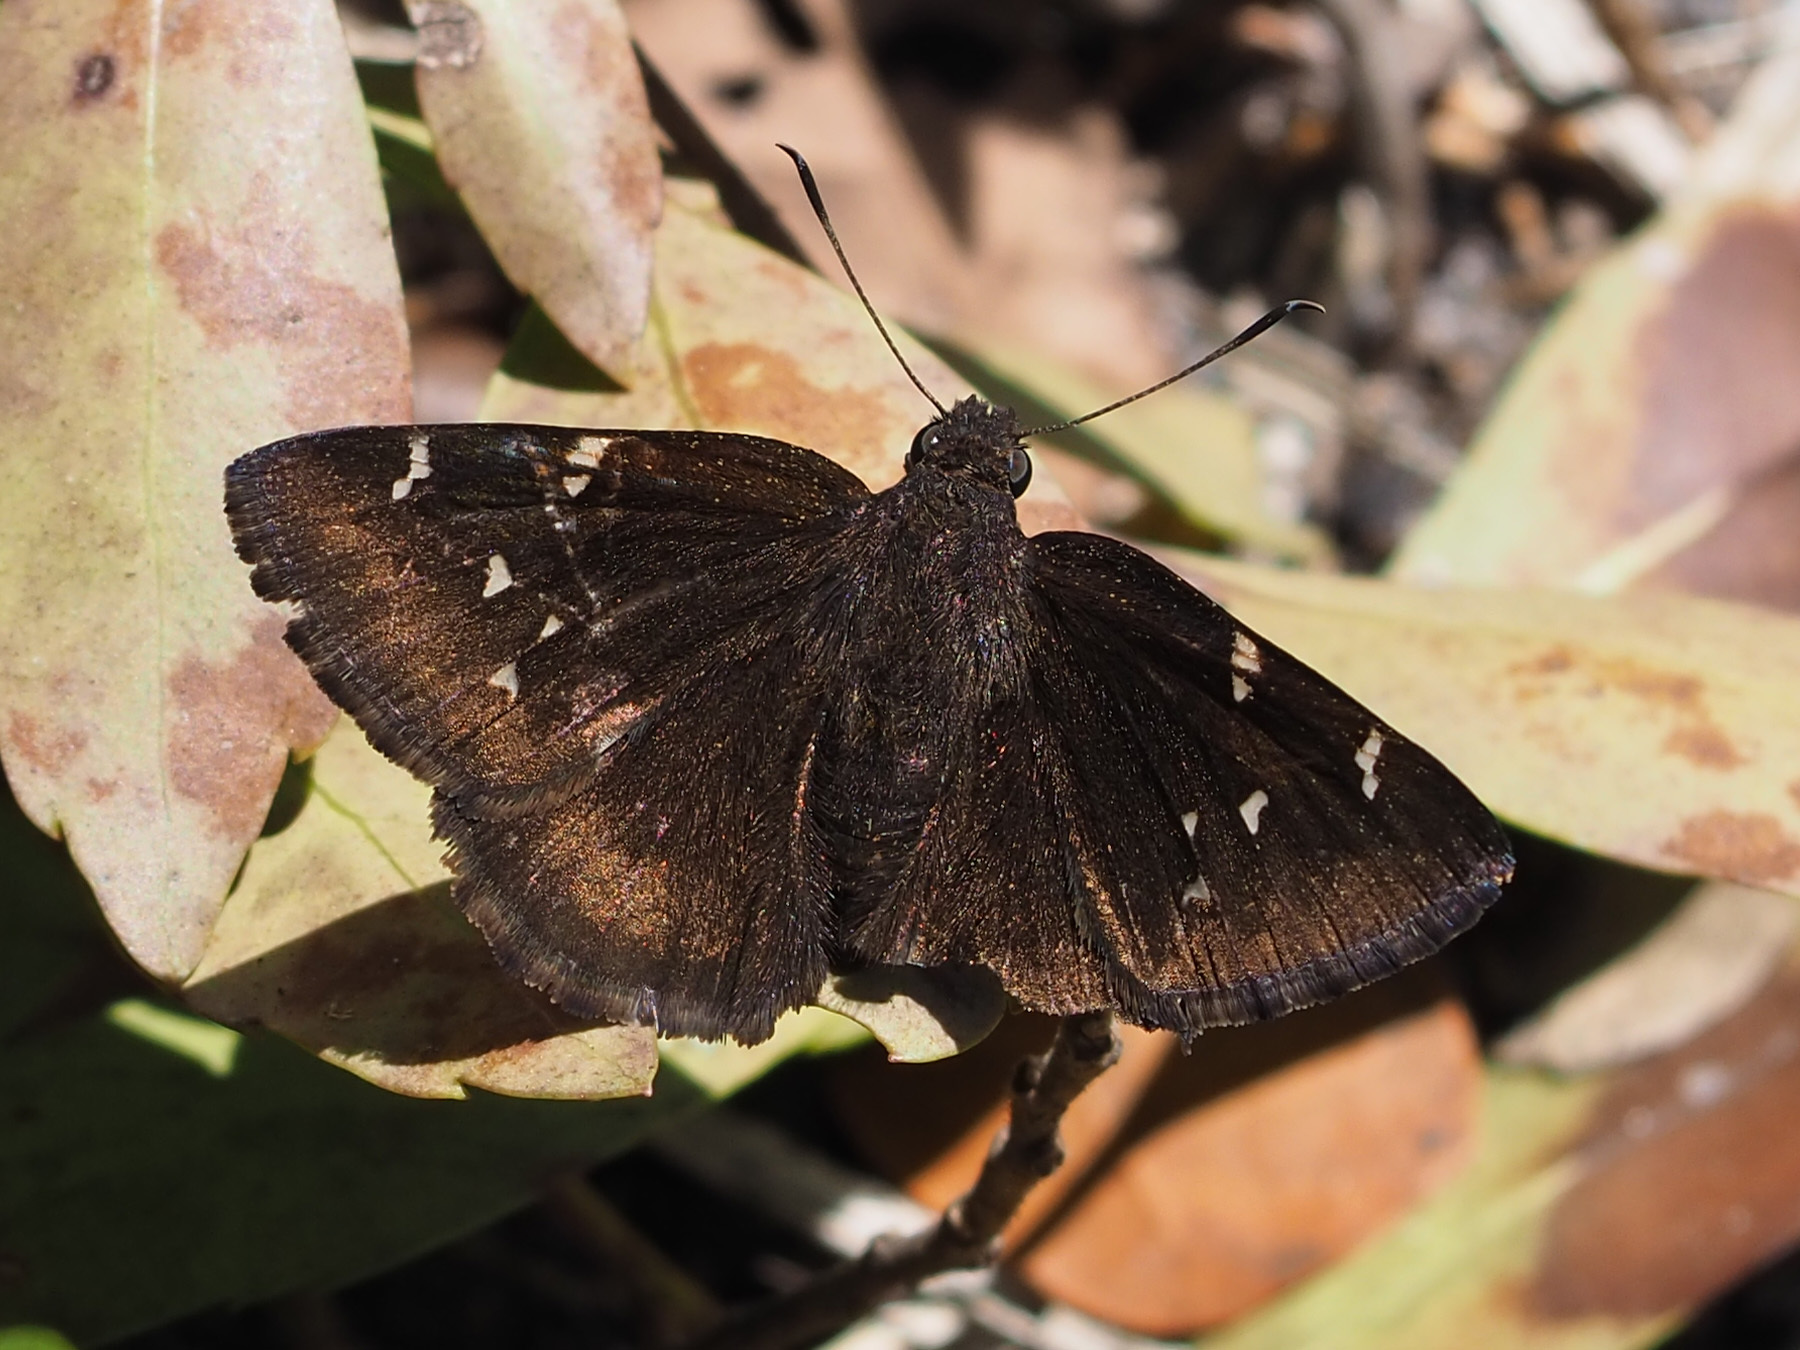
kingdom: Animalia
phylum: Arthropoda
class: Insecta
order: Lepidoptera
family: Hesperiidae
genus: Thorybes
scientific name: Thorybes pylades
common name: Northern cloudywing
